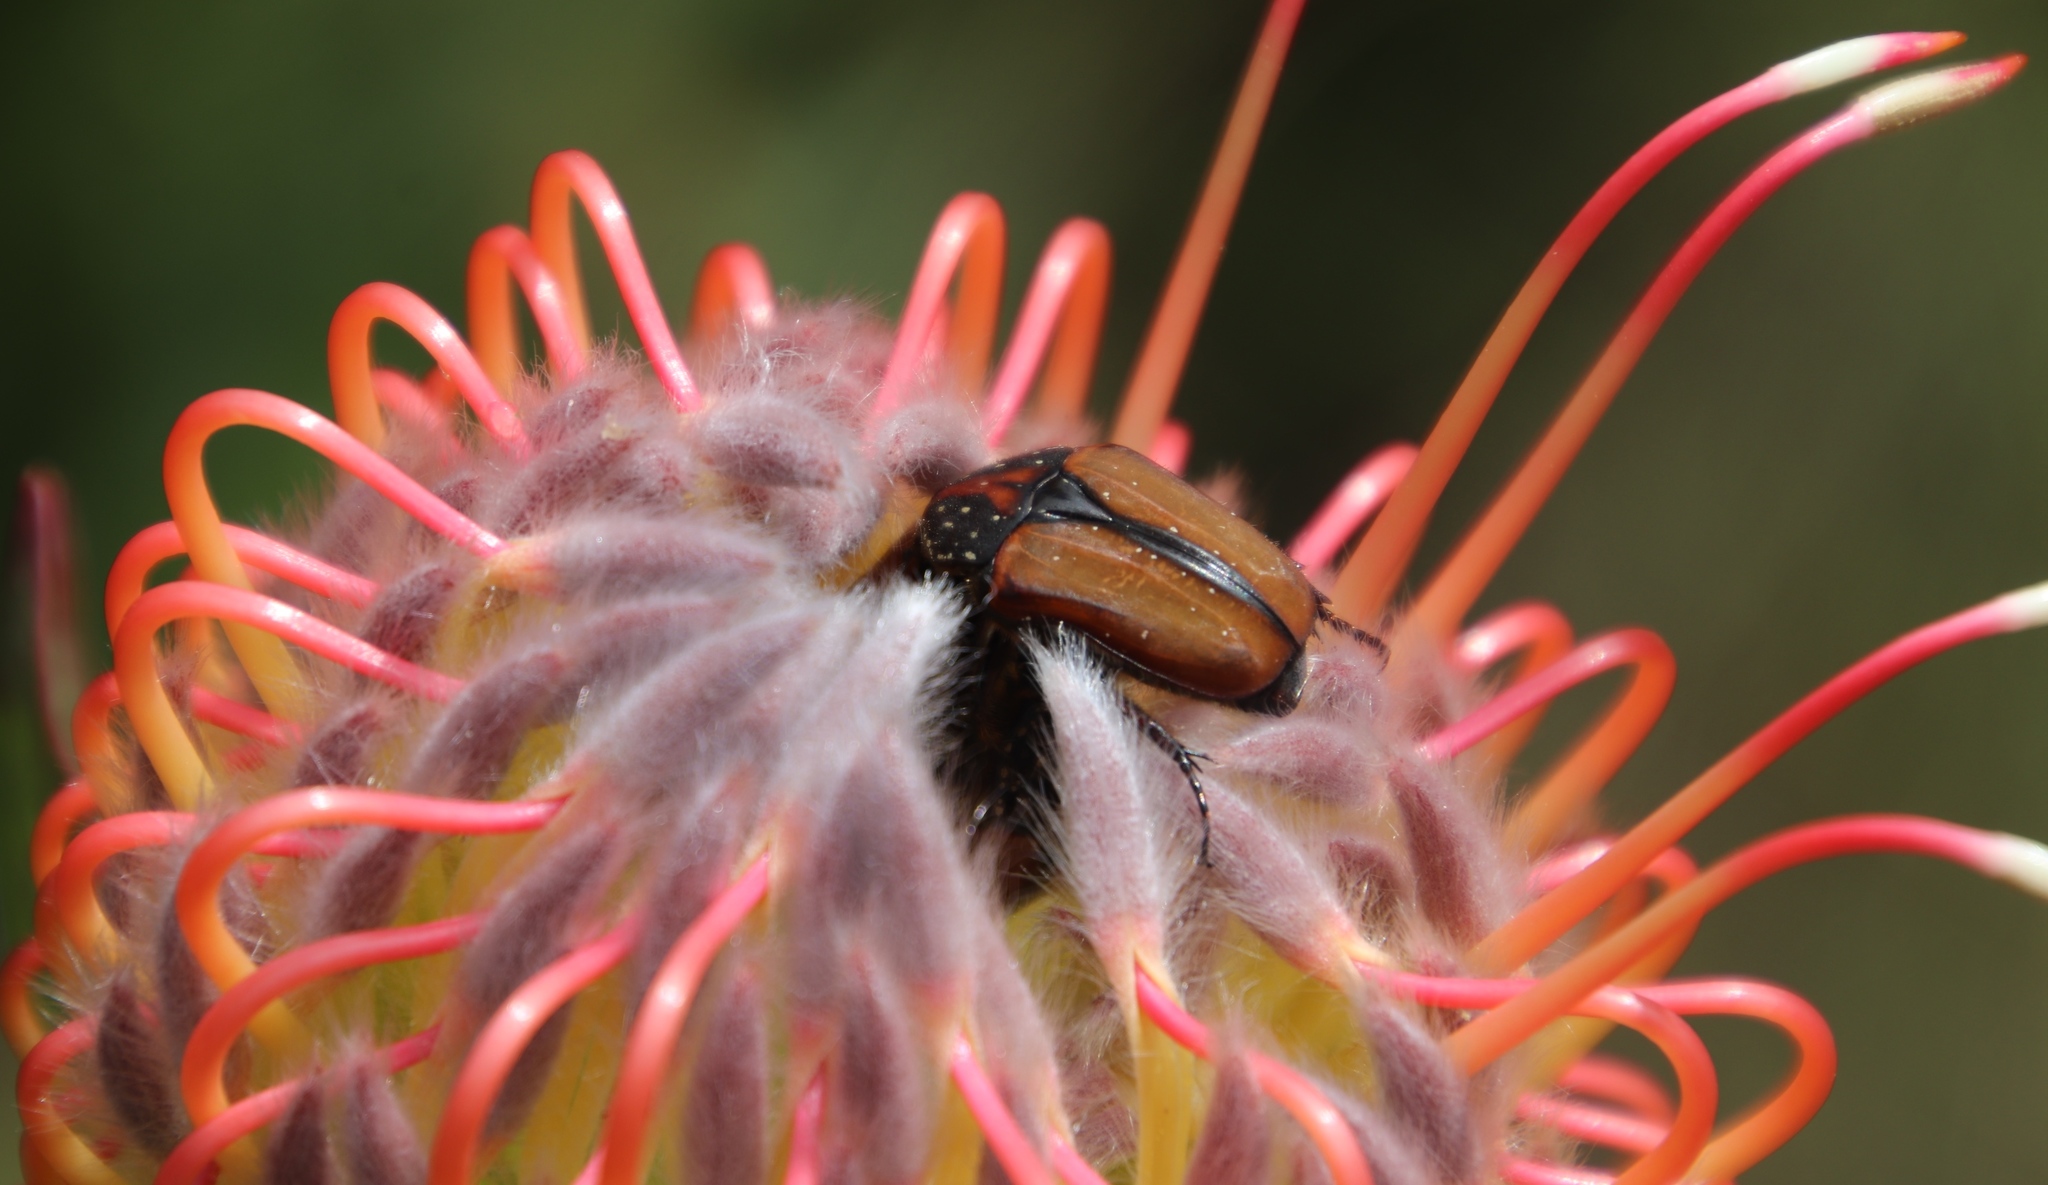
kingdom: Animalia
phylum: Arthropoda
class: Insecta
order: Coleoptera
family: Scarabaeidae
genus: Trichostetha
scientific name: Trichostetha capensis
